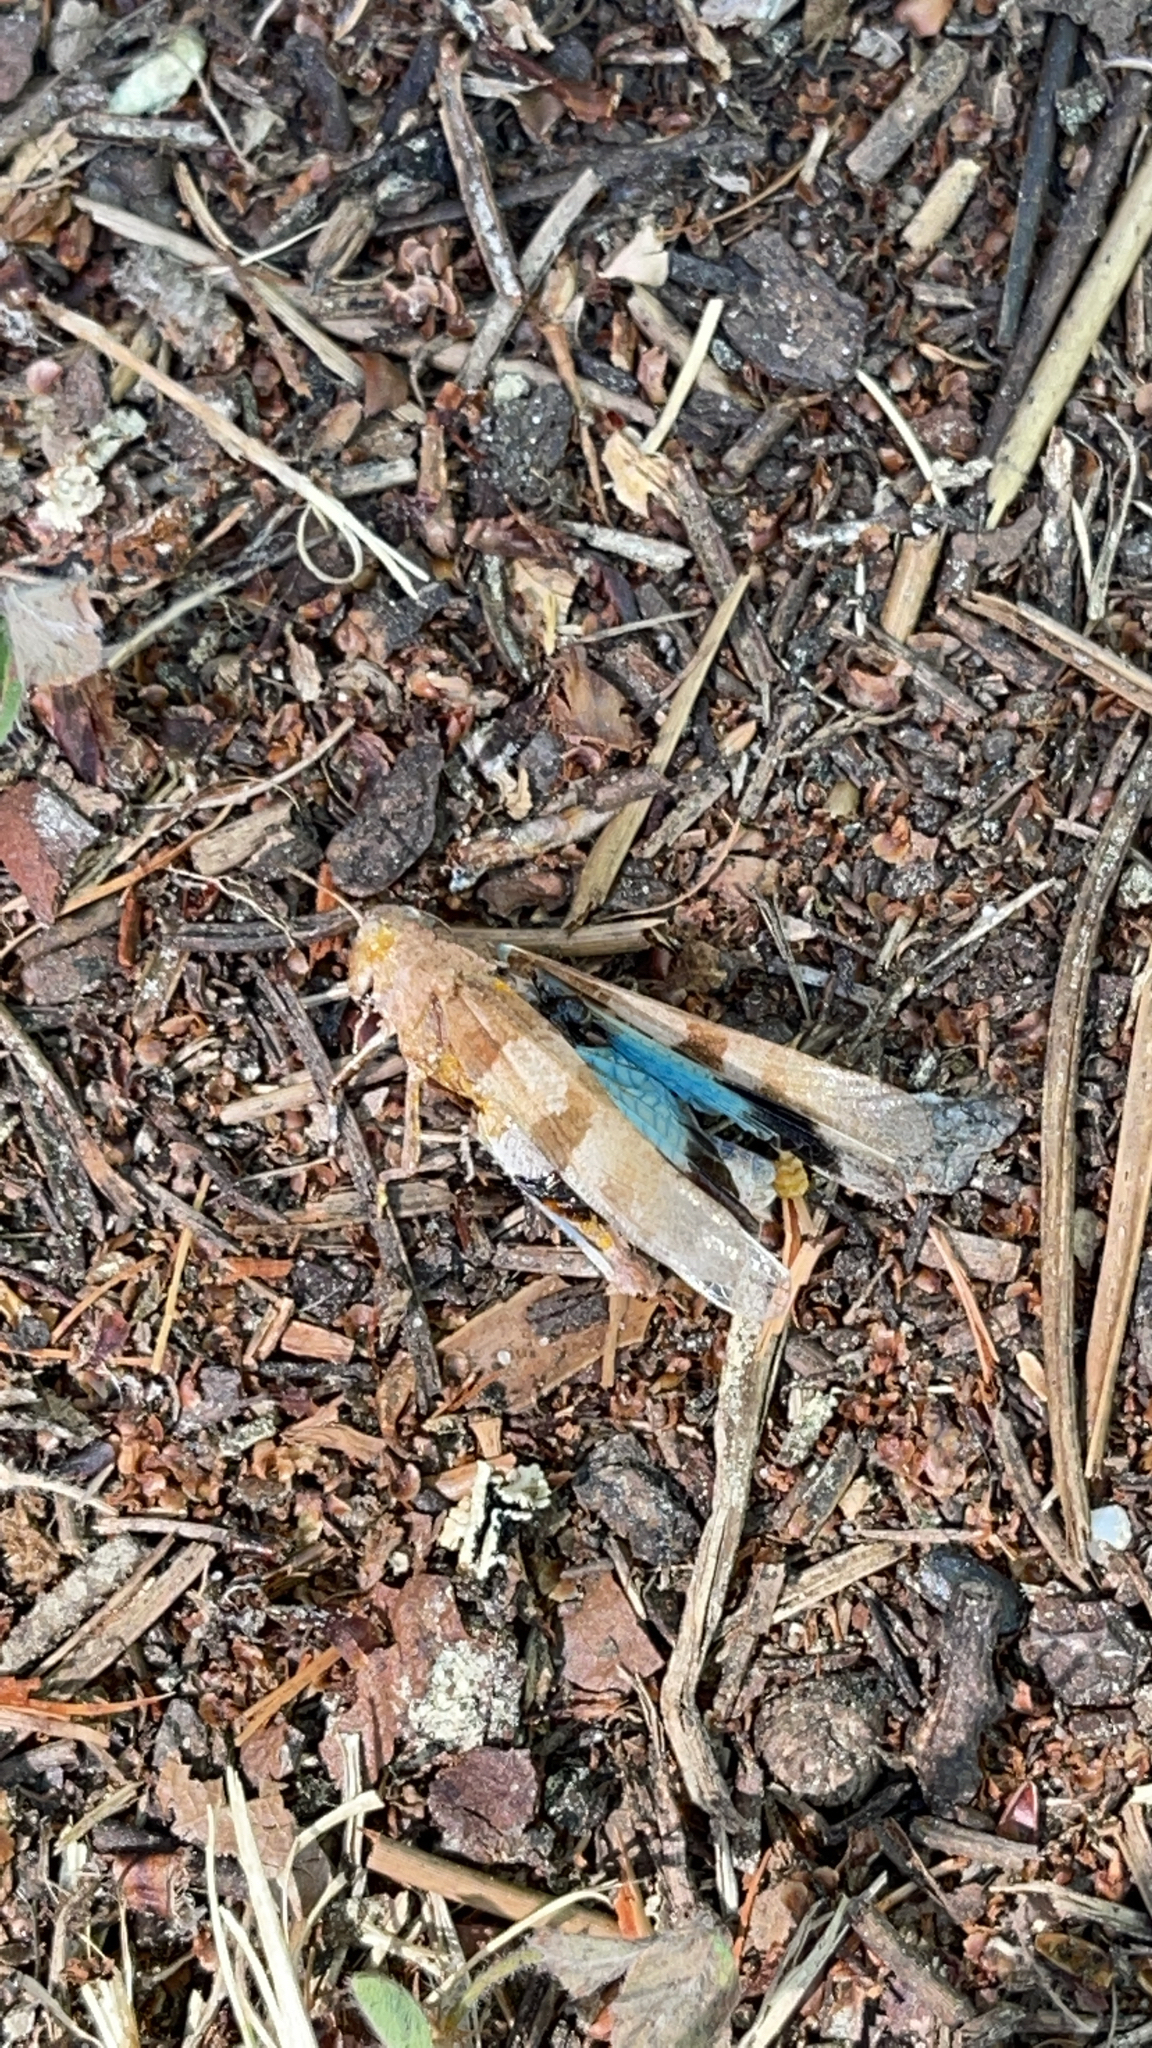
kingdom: Animalia
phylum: Arthropoda
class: Insecta
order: Orthoptera
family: Acrididae
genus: Oedipoda
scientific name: Oedipoda caerulescens
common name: Blue-winged grasshopper
